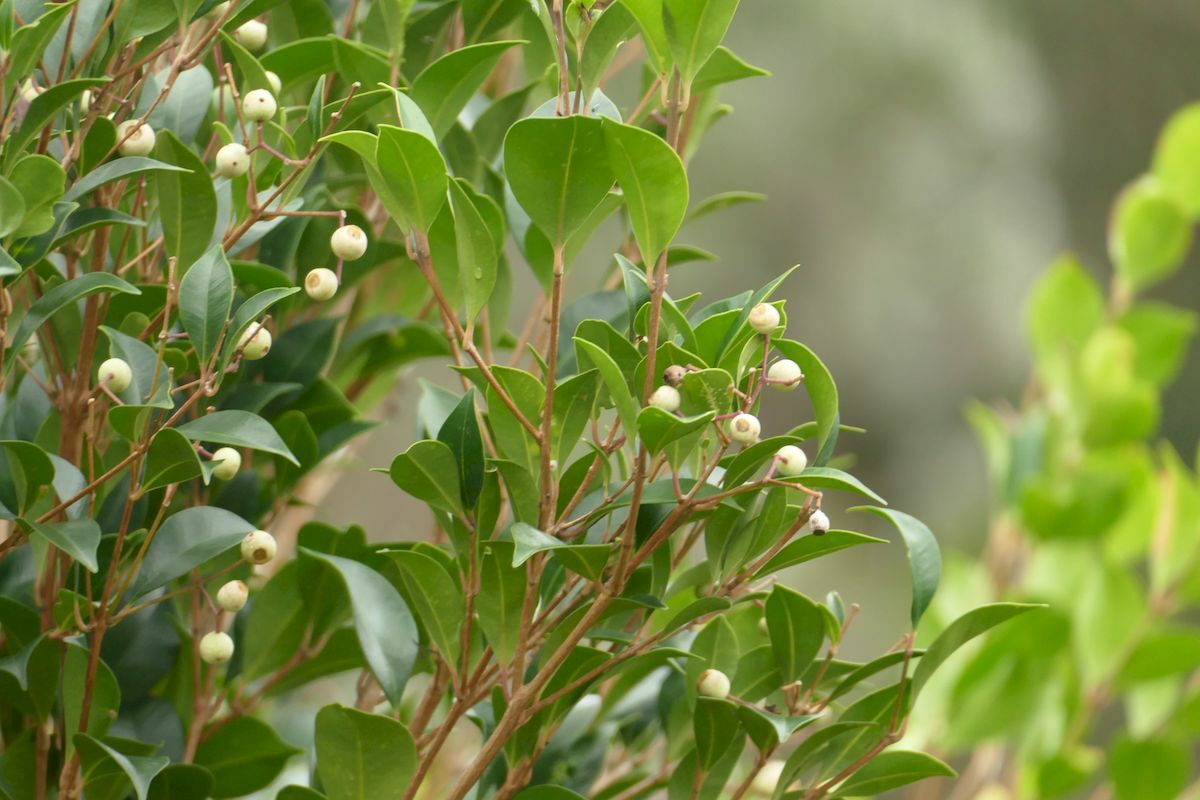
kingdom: Plantae
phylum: Tracheophyta
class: Magnoliopsida
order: Myrtales
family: Myrtaceae
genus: Syzygium
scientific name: Syzygium smithii
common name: Lilly-pilly
